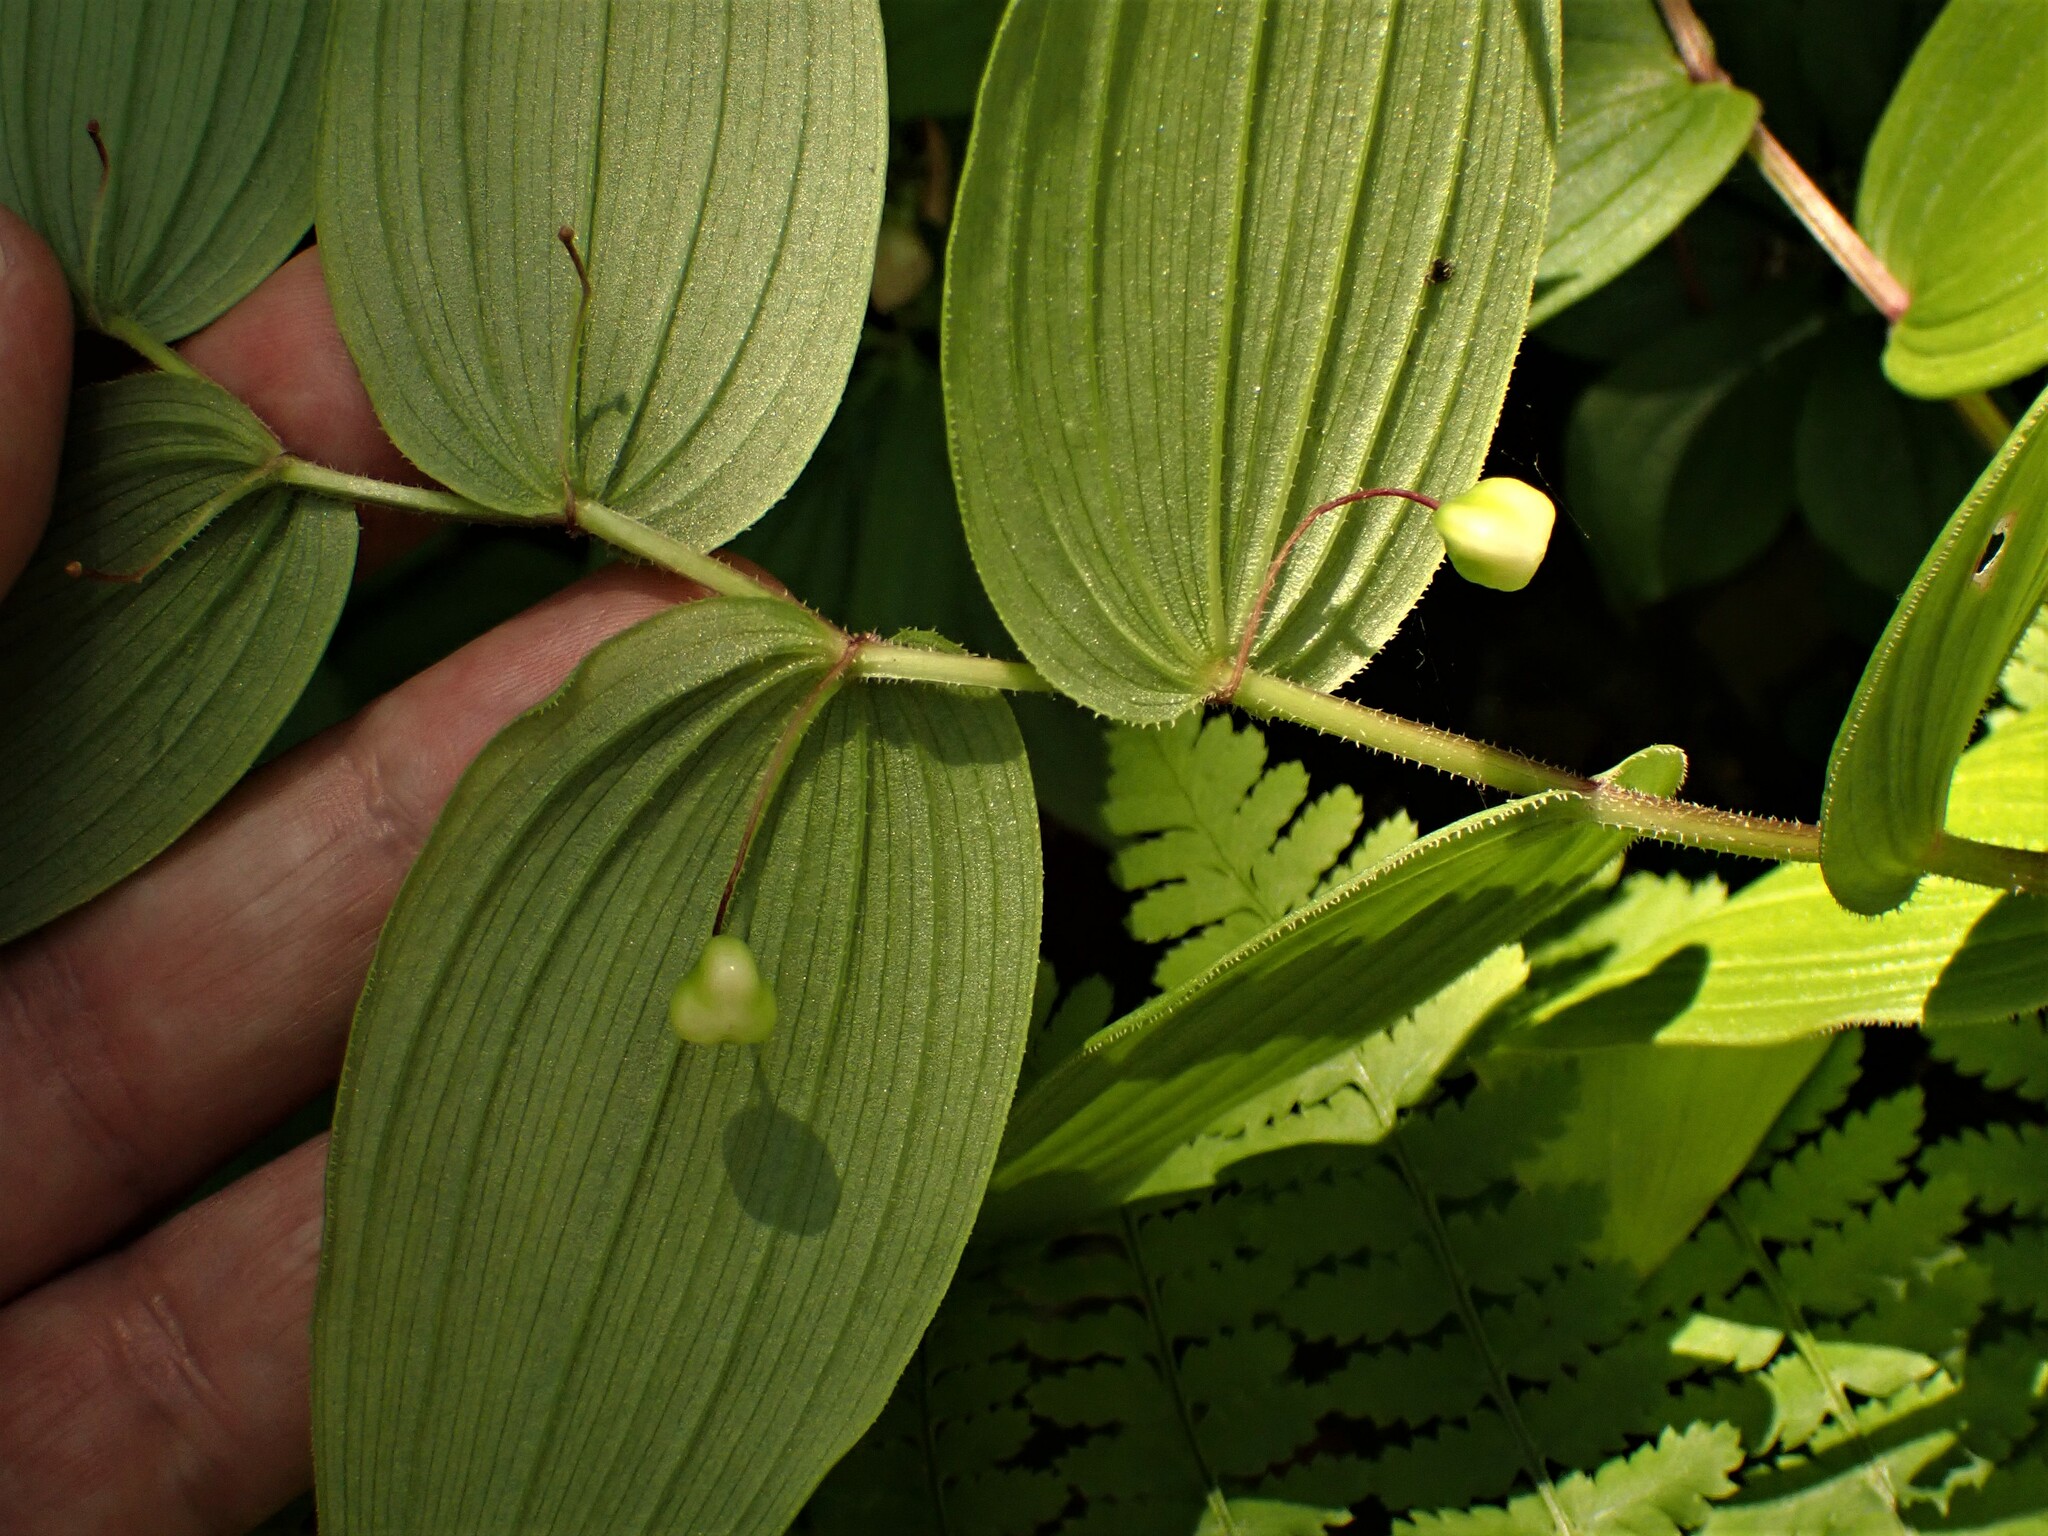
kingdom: Plantae
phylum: Tracheophyta
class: Liliopsida
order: Liliales
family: Liliaceae
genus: Streptopus
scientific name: Streptopus lanceolatus
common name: Rose mandarin
